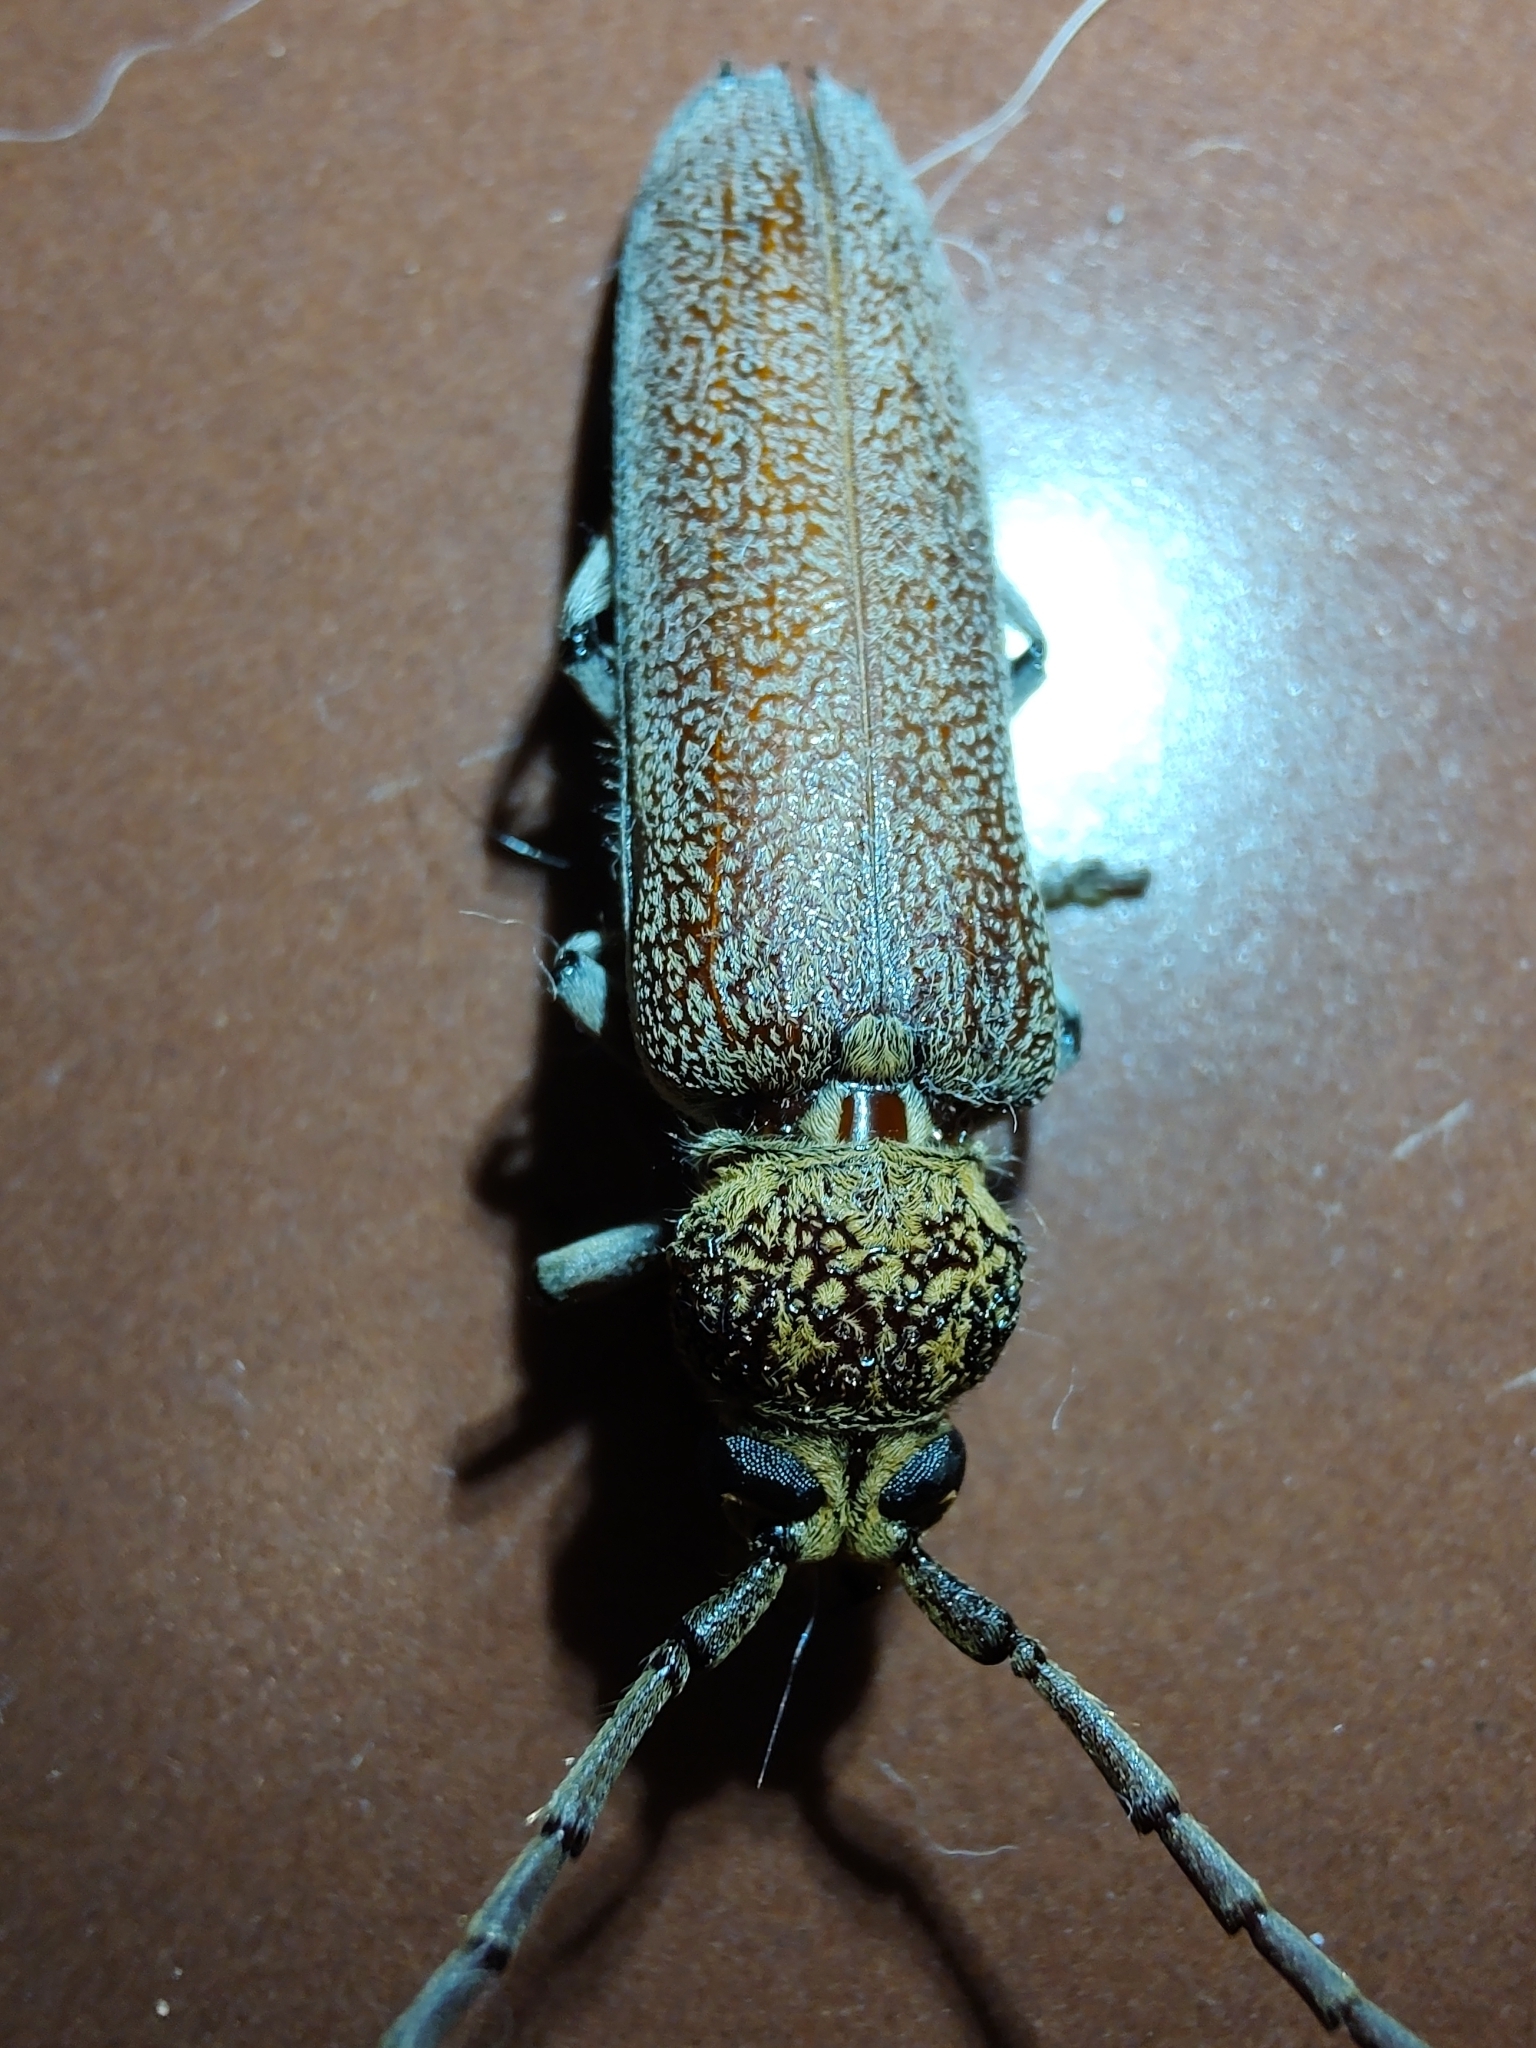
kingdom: Animalia
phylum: Arthropoda
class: Insecta
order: Coleoptera
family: Cerambycidae
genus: Praxithea
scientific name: Praxithea derourei
